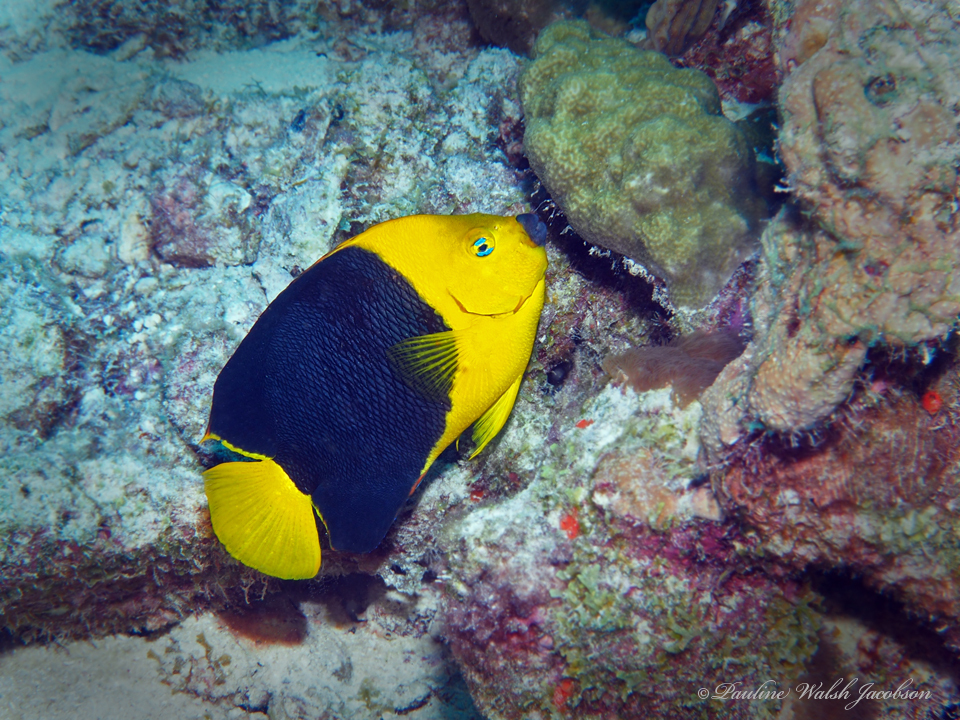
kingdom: Animalia
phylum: Chordata
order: Perciformes
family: Pomacanthidae
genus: Holacanthus
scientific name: Holacanthus tricolor
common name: Rock beauty
